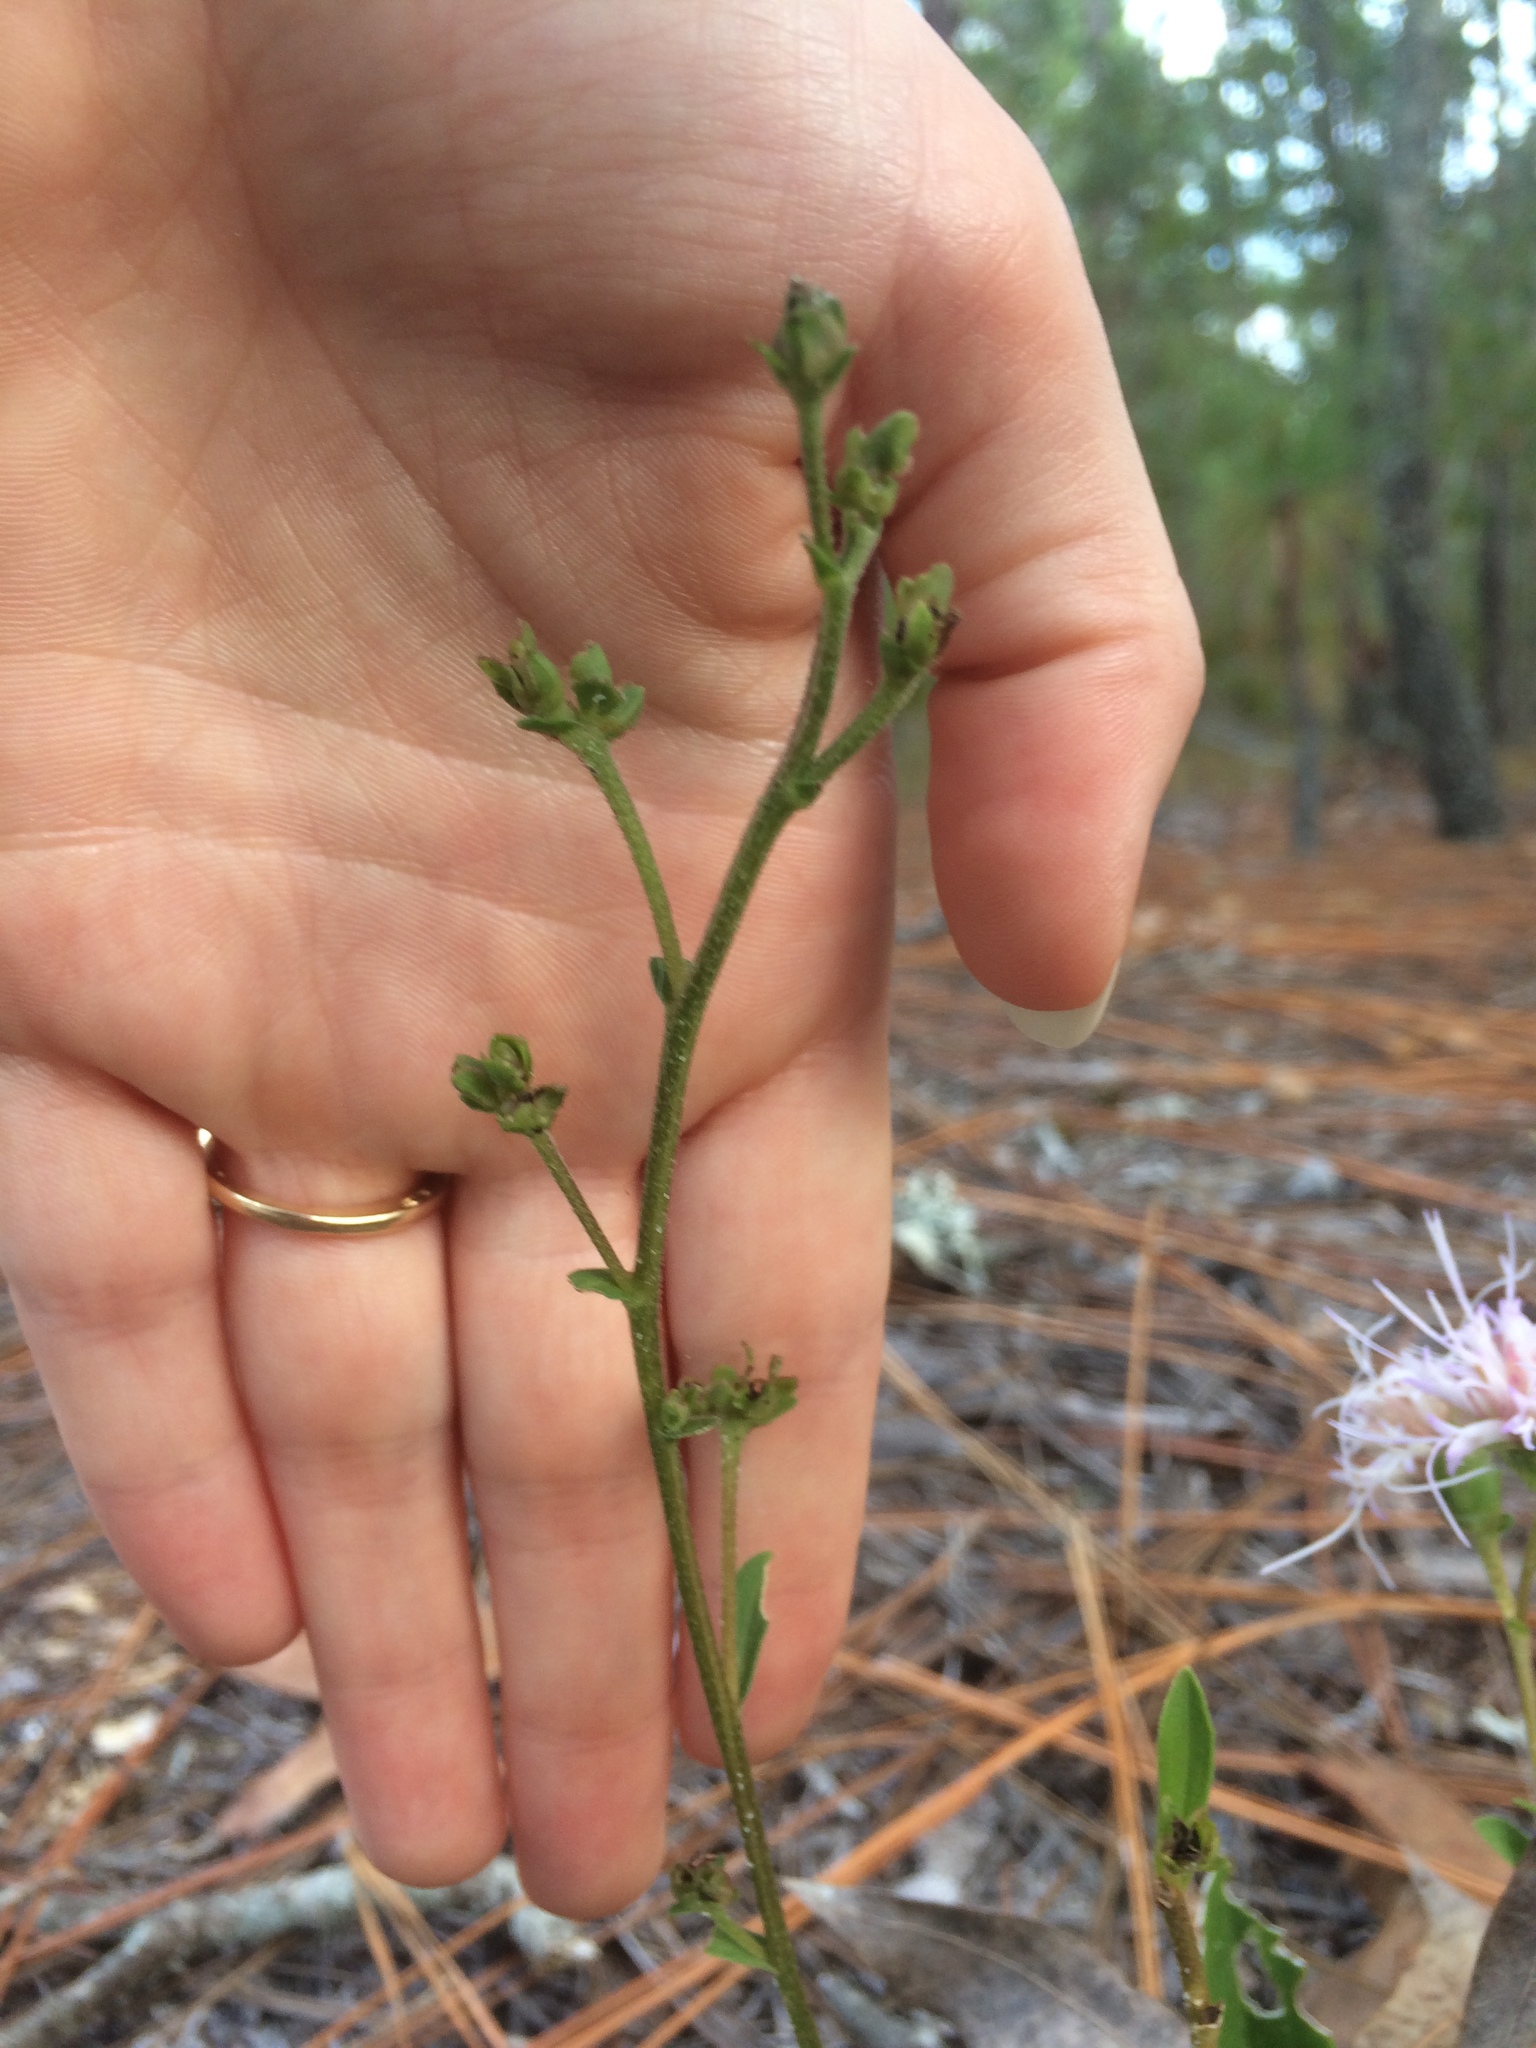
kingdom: Plantae
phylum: Tracheophyta
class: Magnoliopsida
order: Asterales
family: Asteraceae
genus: Carphephorus
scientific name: Carphephorus bellidifolius
